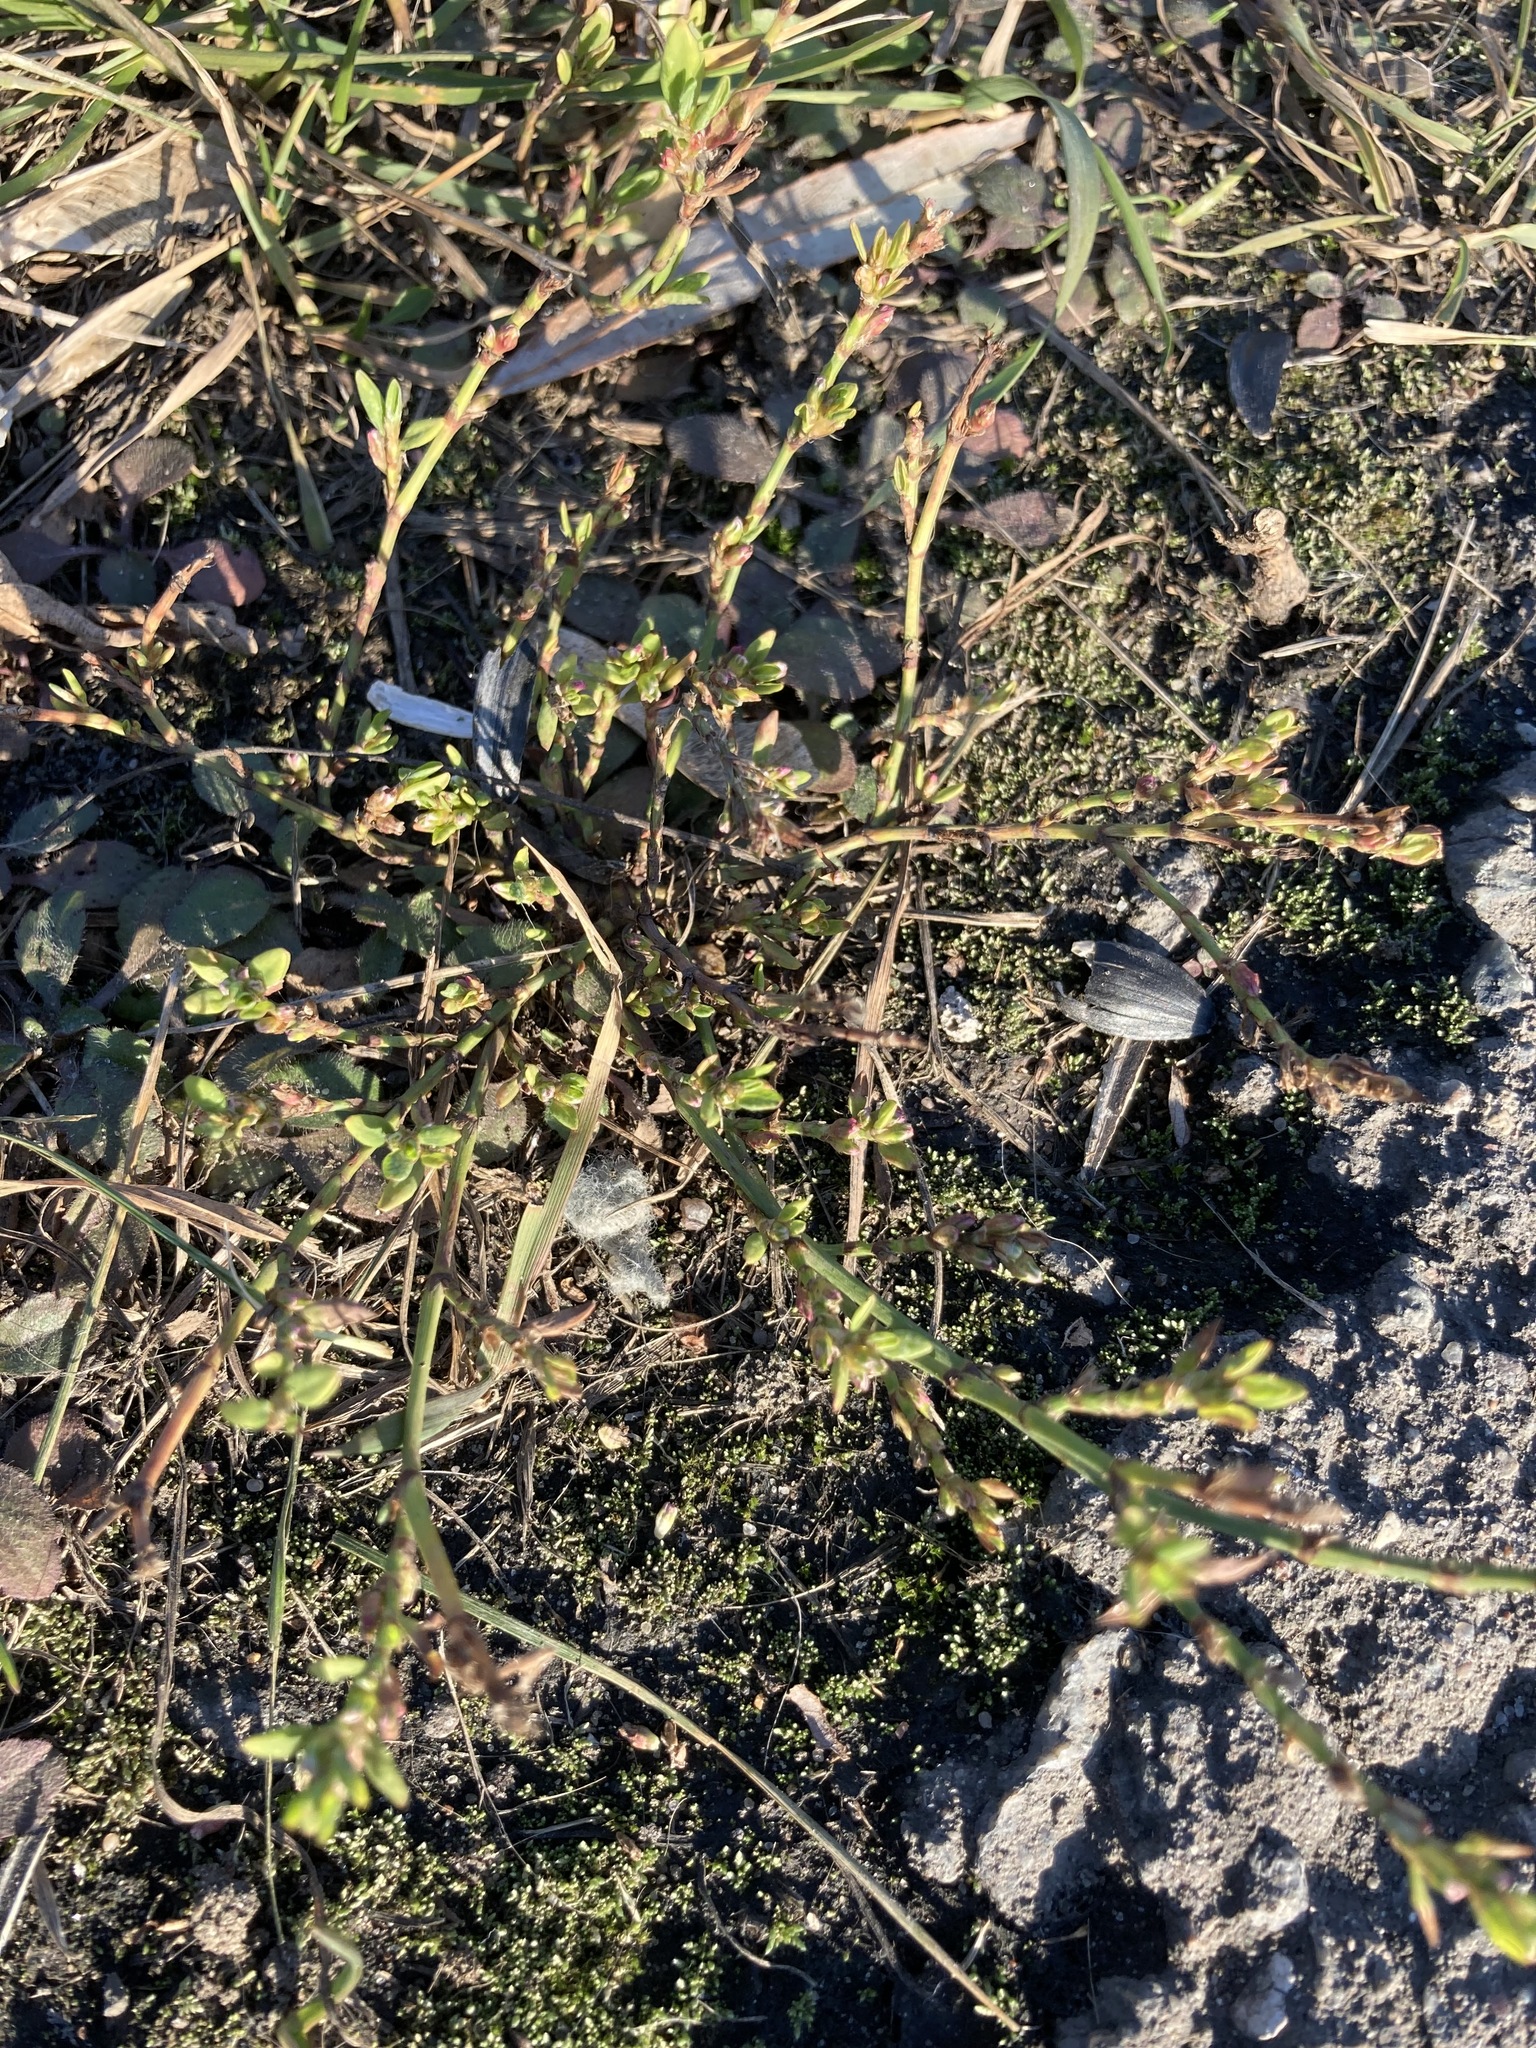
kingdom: Plantae
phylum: Tracheophyta
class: Magnoliopsida
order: Caryophyllales
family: Polygonaceae
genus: Polygonum
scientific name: Polygonum
